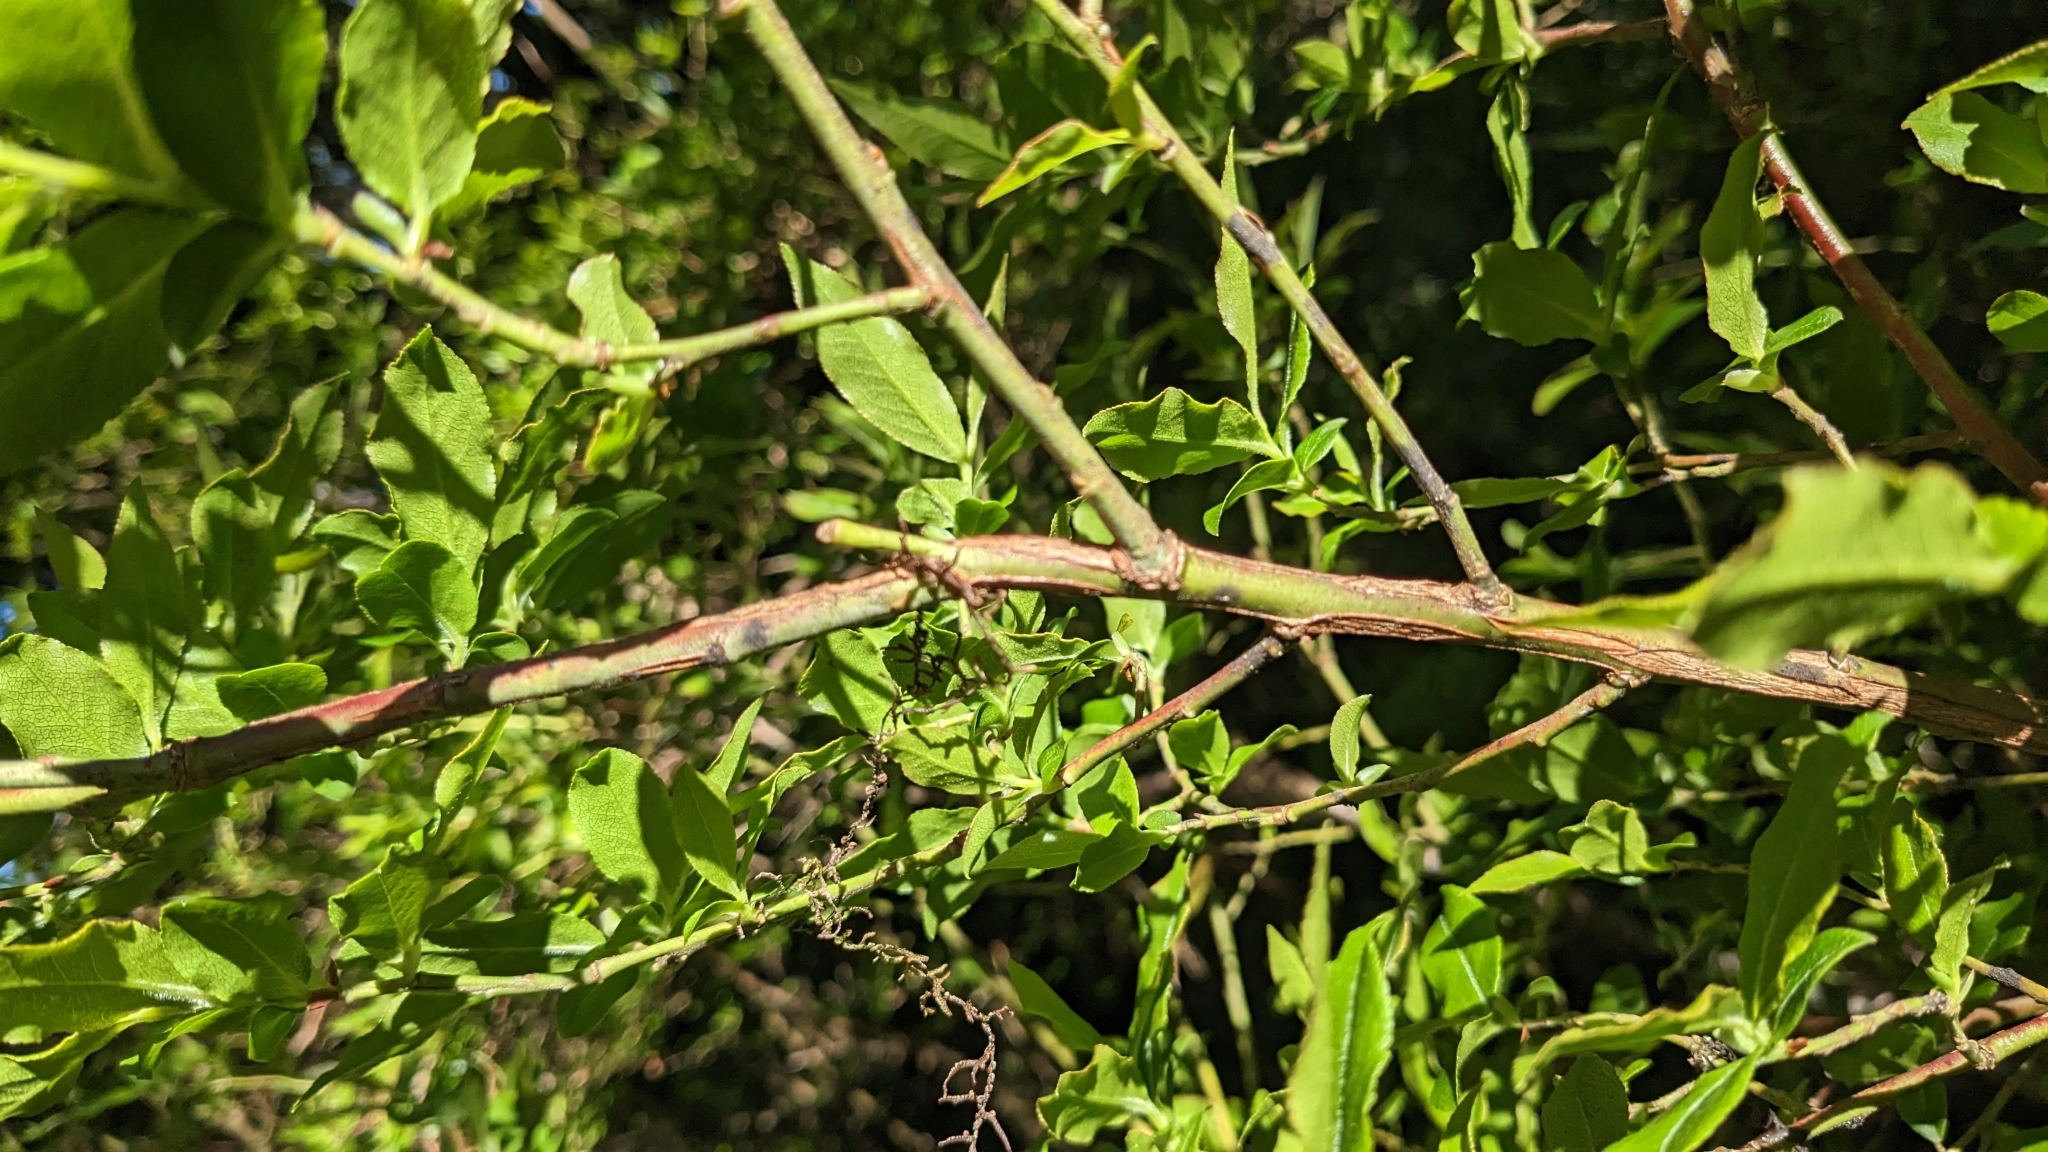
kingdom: Plantae
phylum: Tracheophyta
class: Magnoliopsida
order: Ericales
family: Ericaceae
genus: Vaccinium
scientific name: Vaccinium padifolium
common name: Madeiran blueberry
